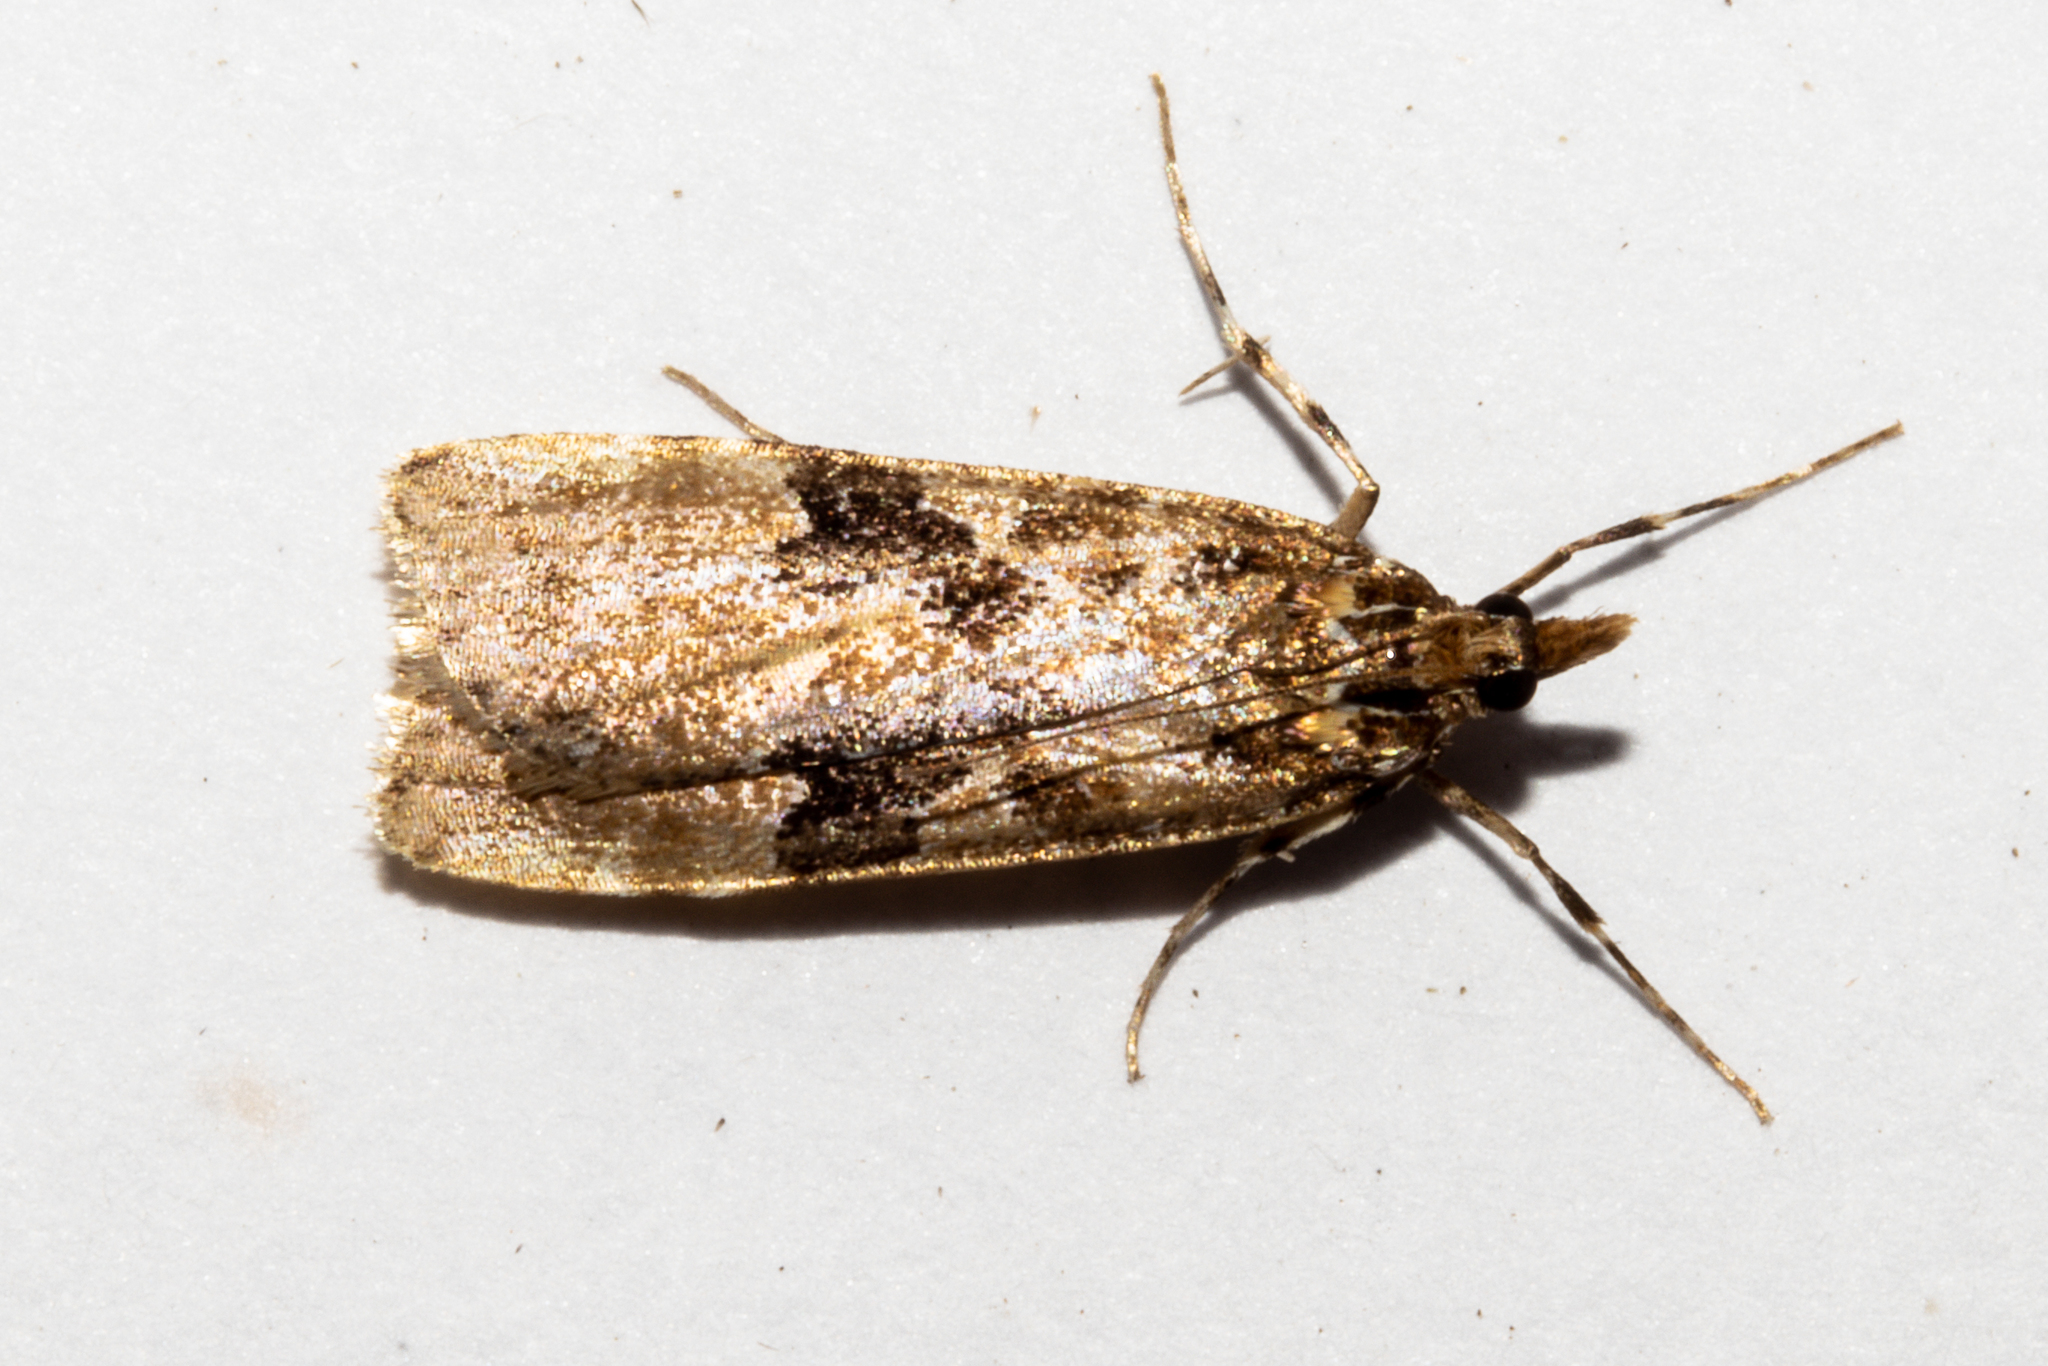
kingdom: Animalia
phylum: Arthropoda
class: Insecta
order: Lepidoptera
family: Crambidae
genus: Scoparia
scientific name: Scoparia ustimacula
